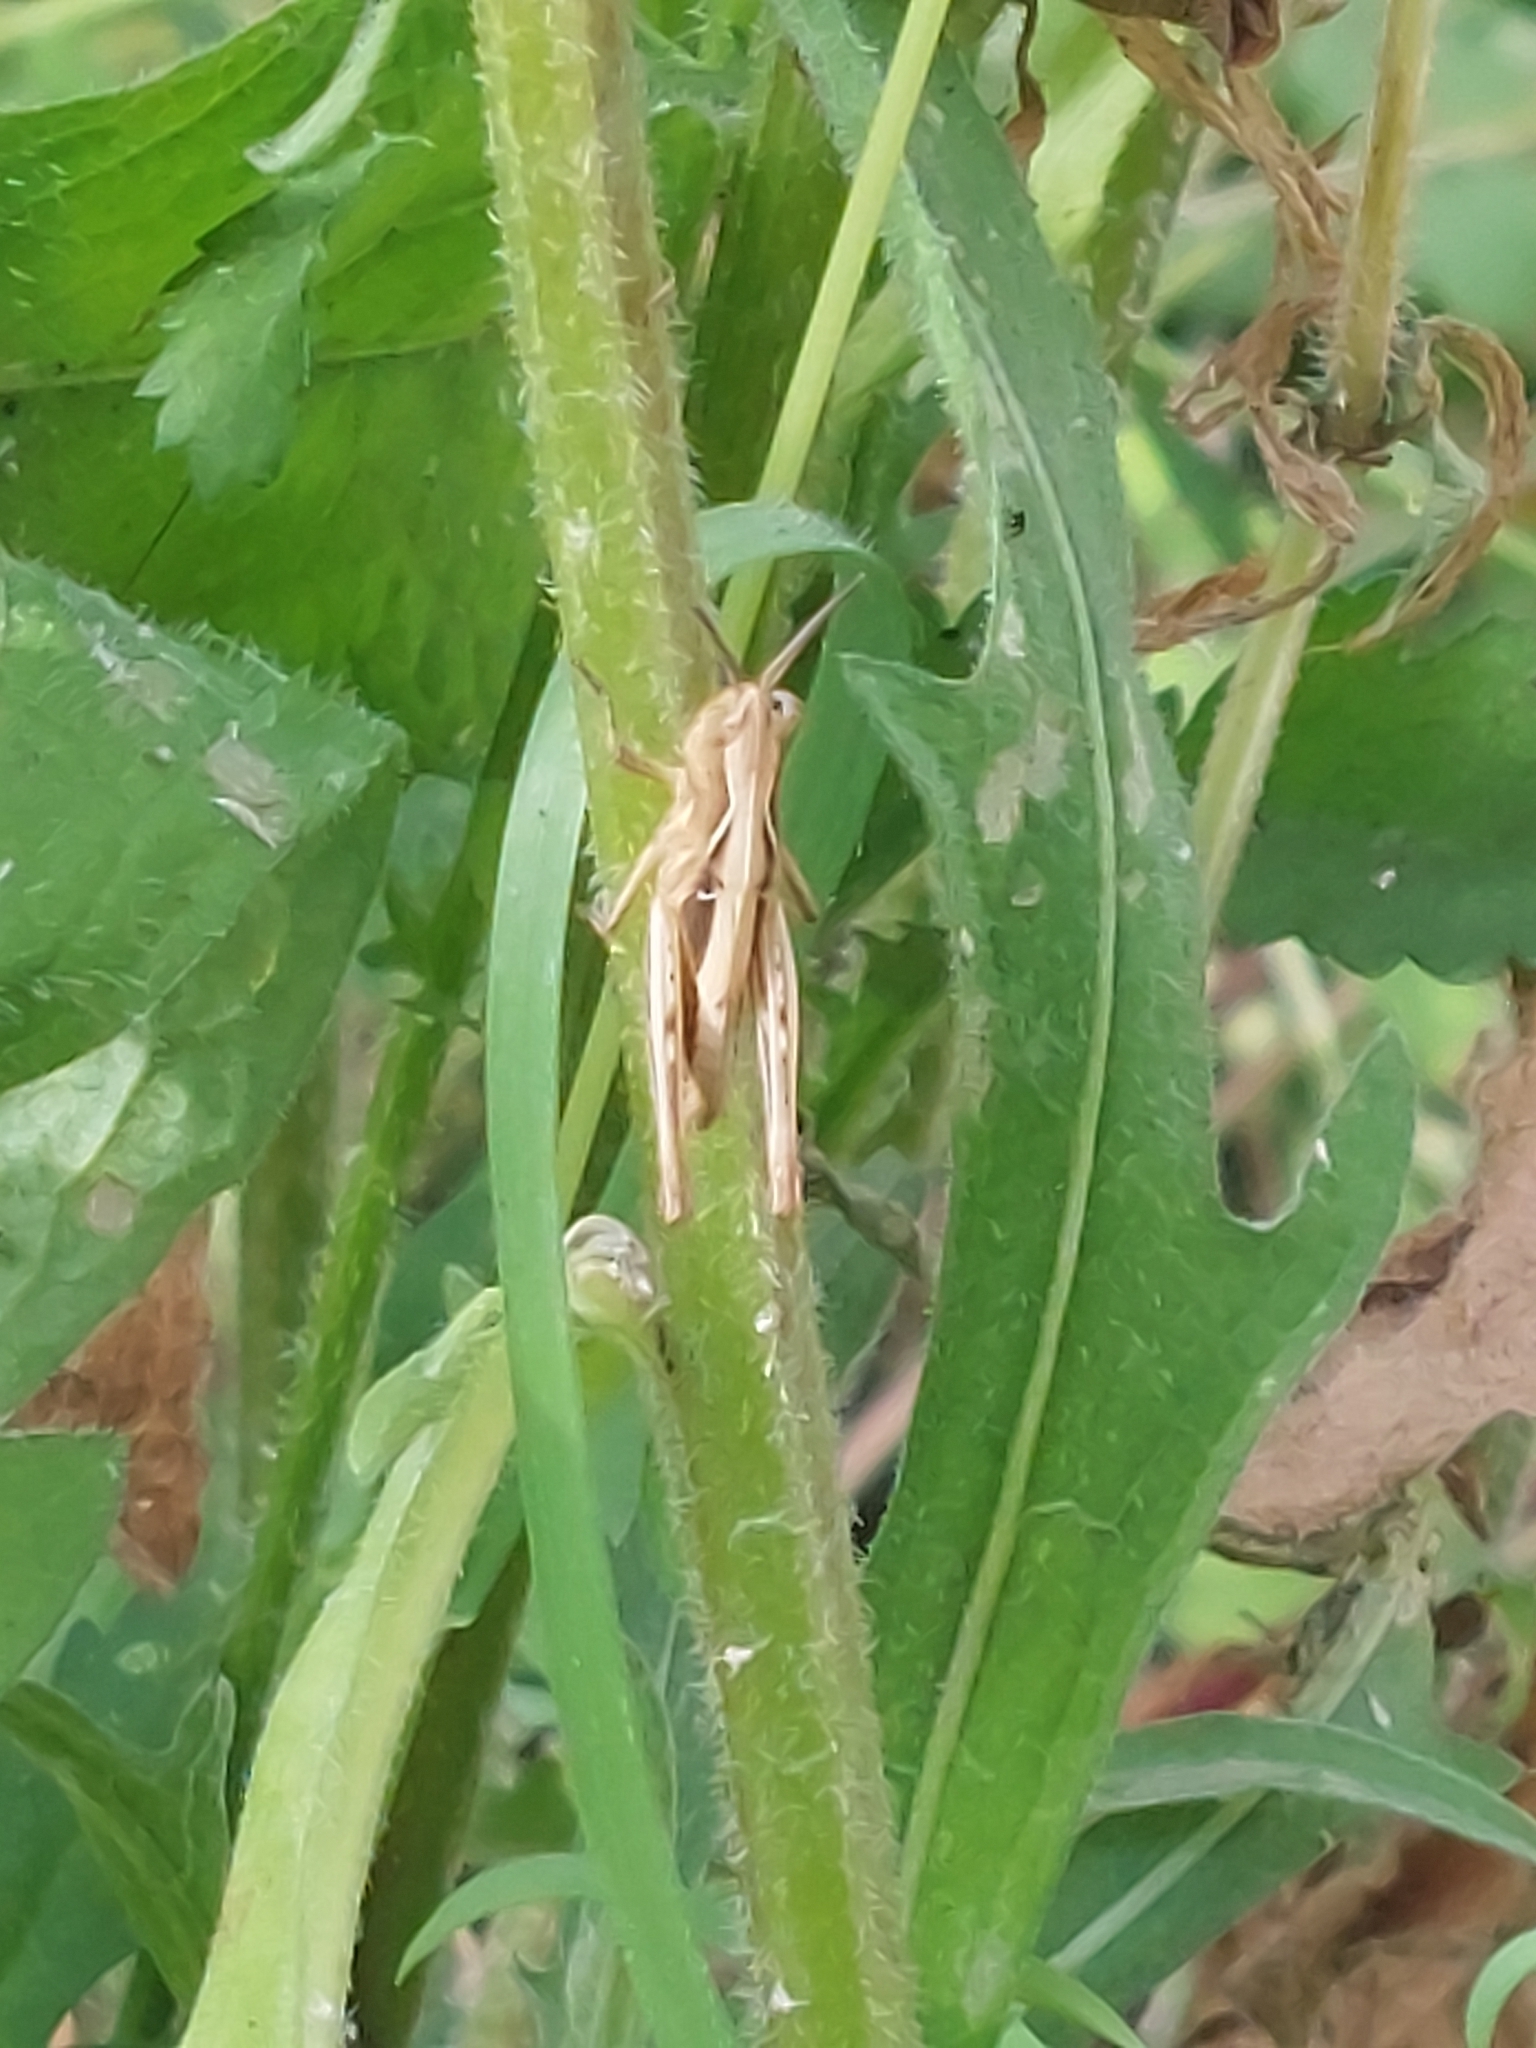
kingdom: Animalia
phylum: Arthropoda
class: Insecta
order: Orthoptera
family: Acrididae
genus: Chorthippus
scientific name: Chorthippus brunneus
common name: Field grasshopper
